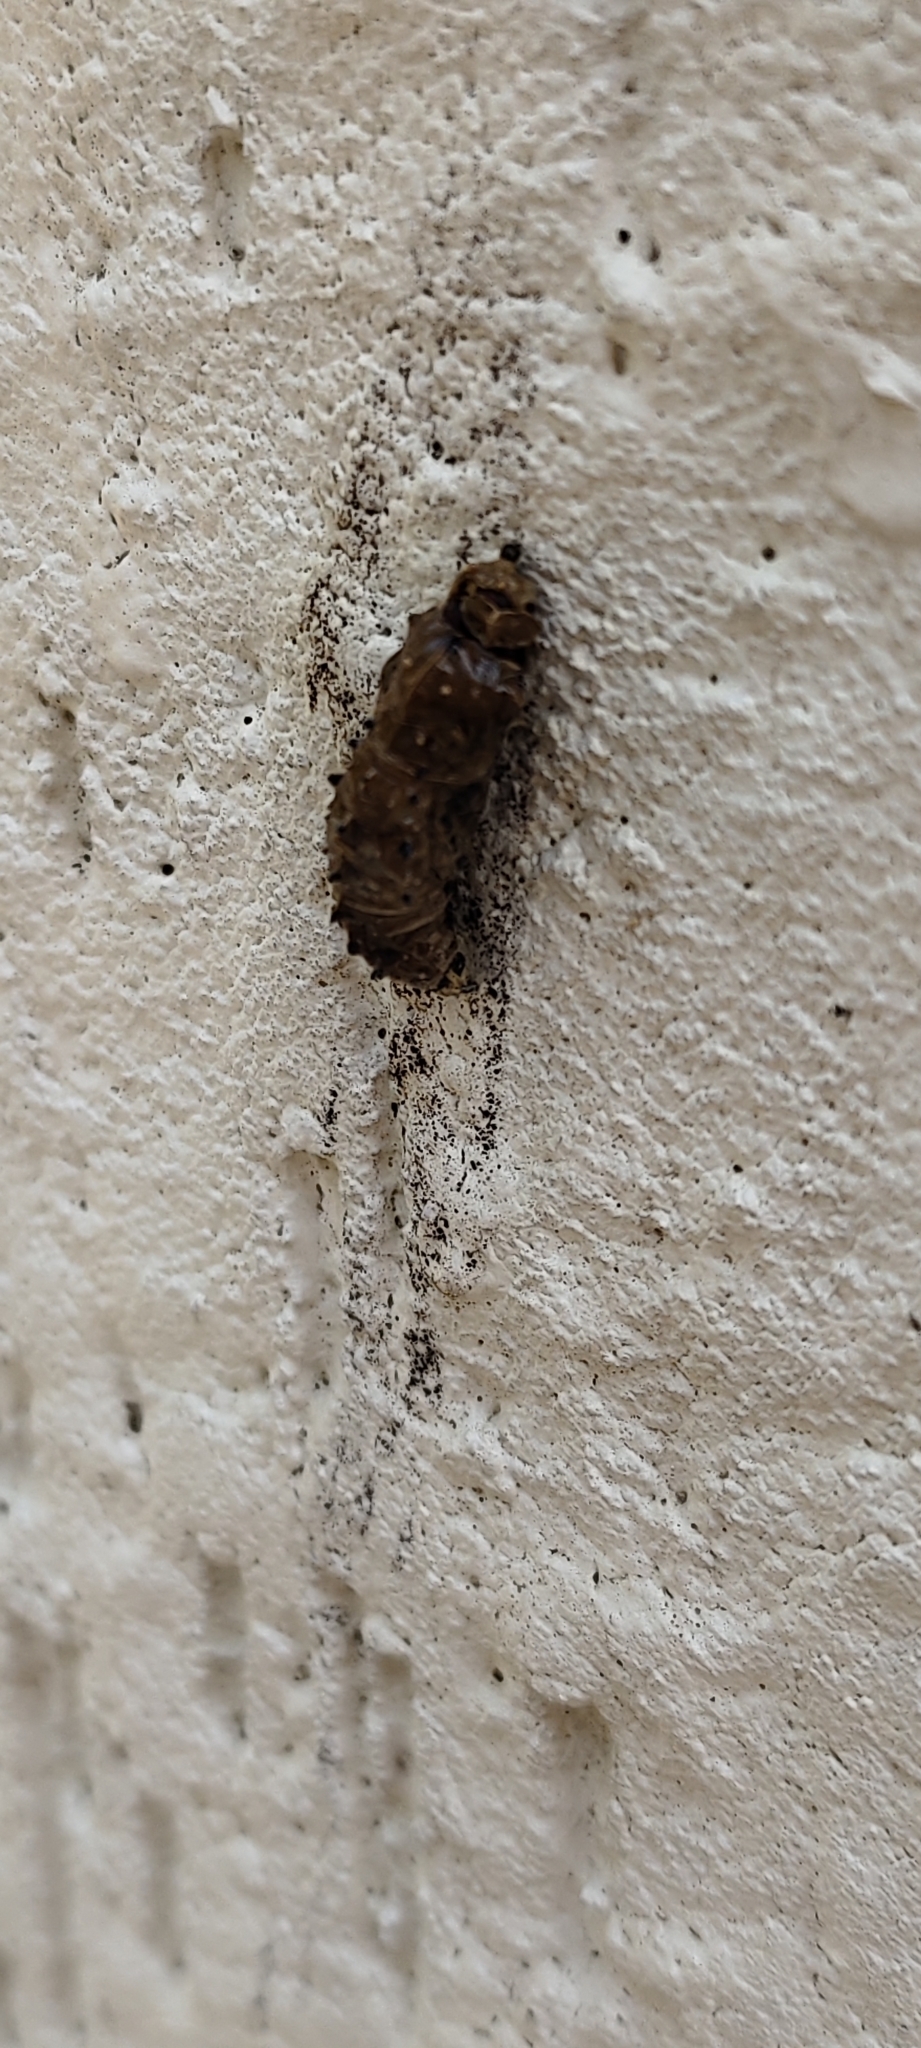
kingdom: Animalia
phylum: Arthropoda
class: Insecta
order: Lepidoptera
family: Pieridae
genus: Delias
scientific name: Delias eucharis
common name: Common jezebel
